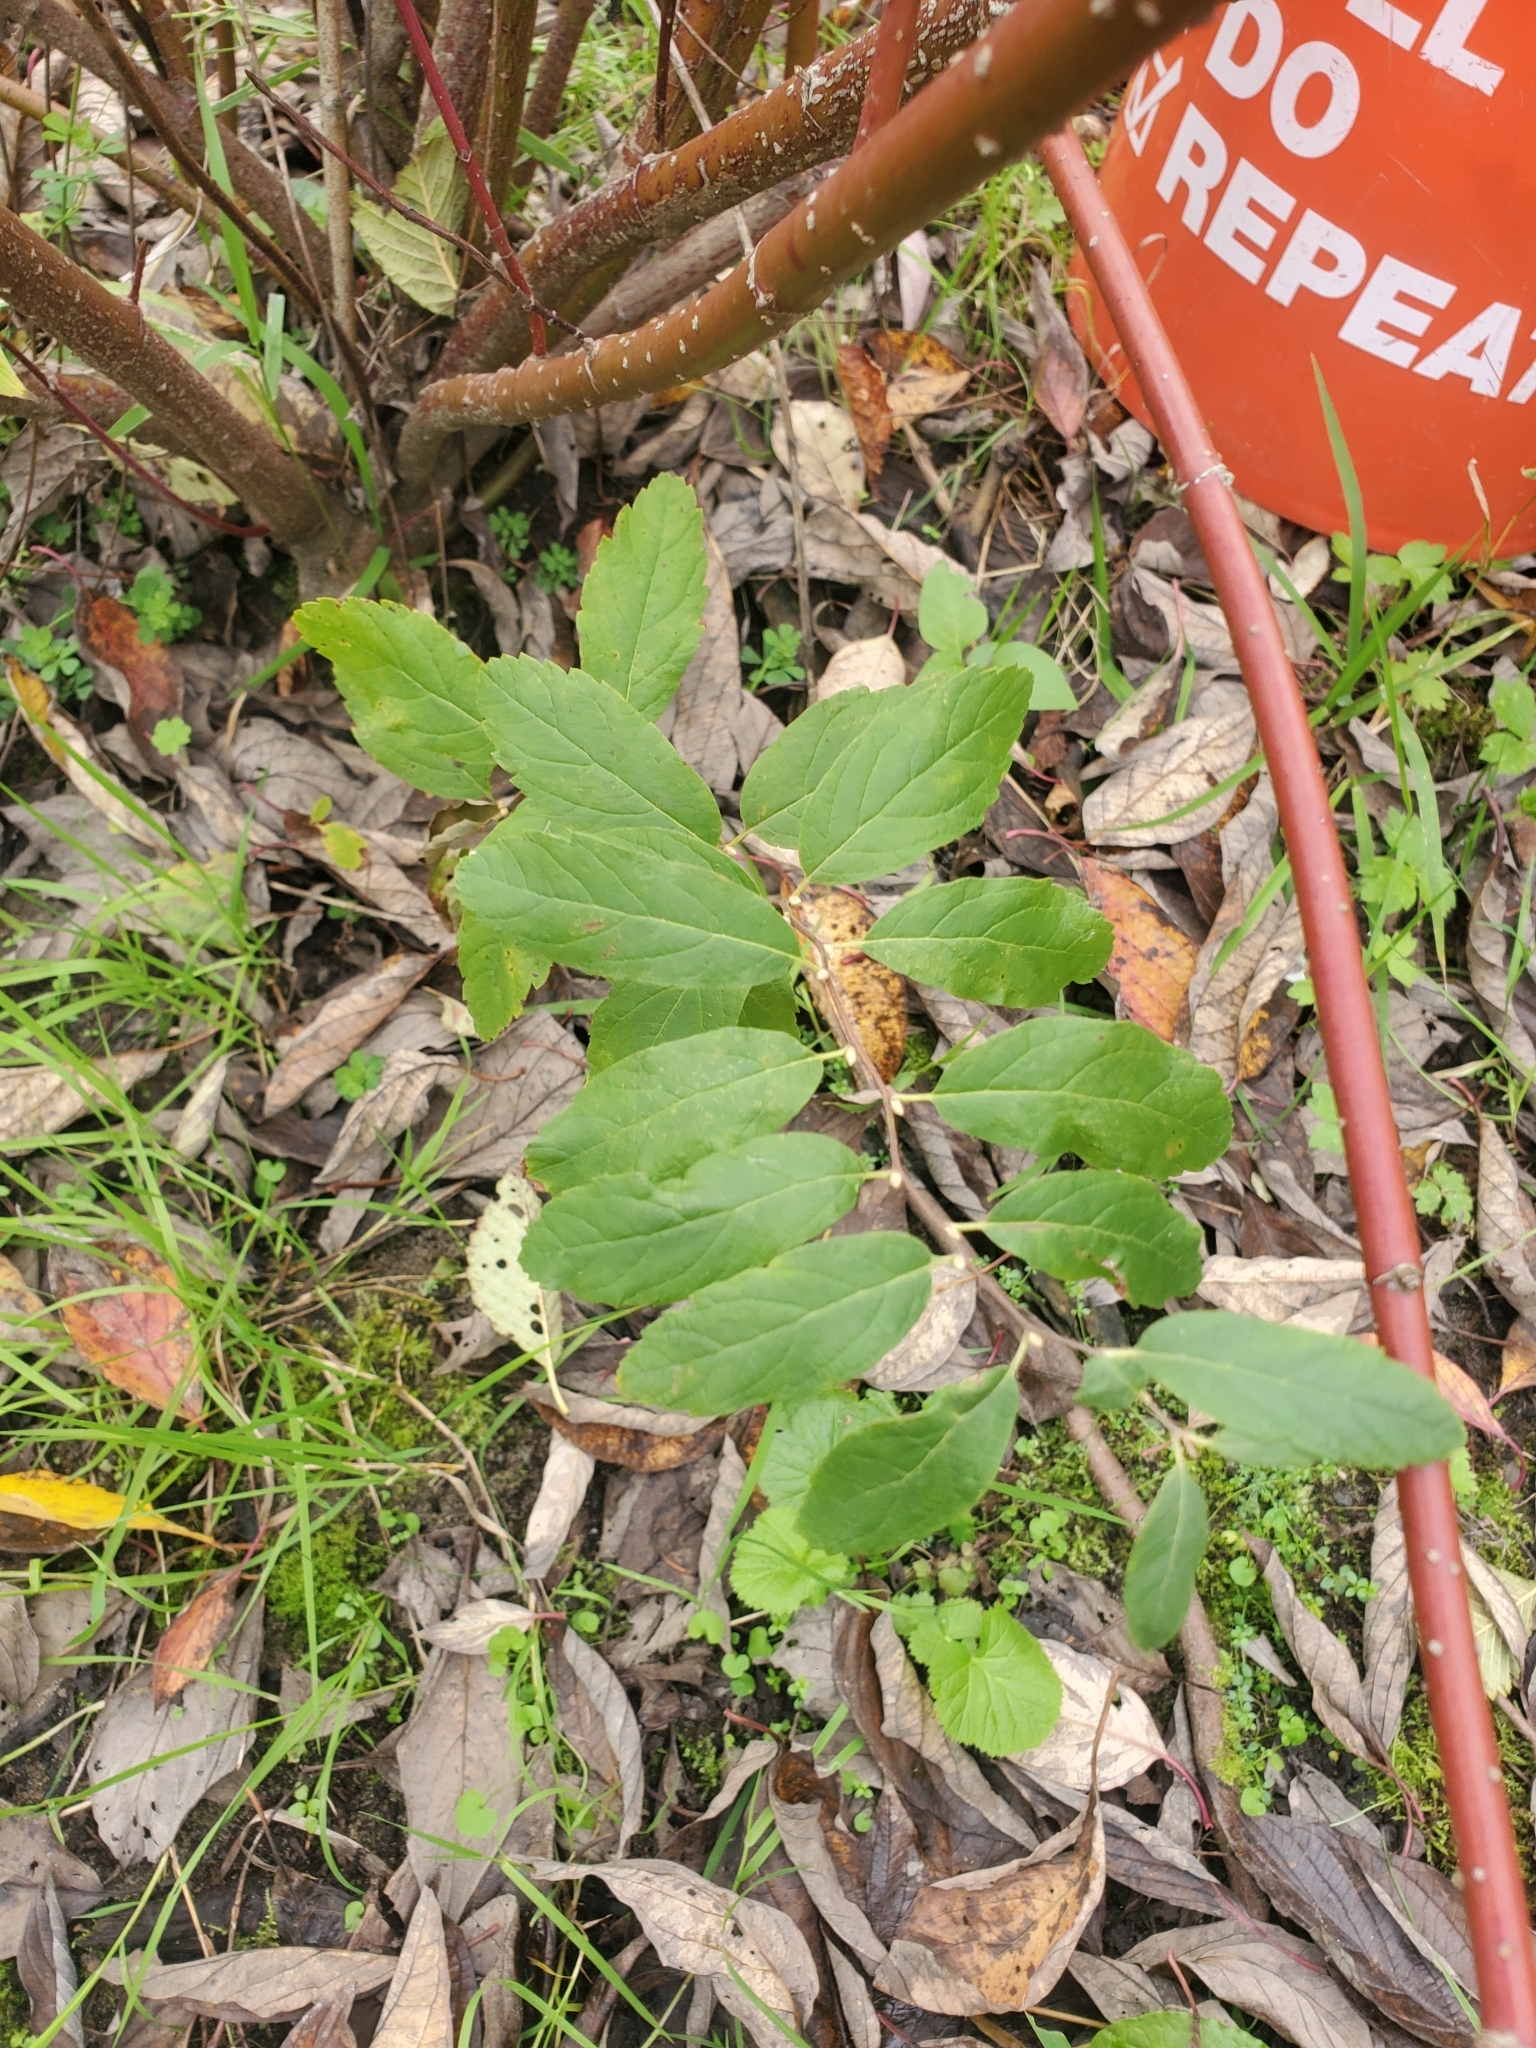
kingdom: Plantae
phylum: Tracheophyta
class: Magnoliopsida
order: Rosales
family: Rosaceae
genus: Spiraea
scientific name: Spiraea douglasii
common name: Steeplebush
